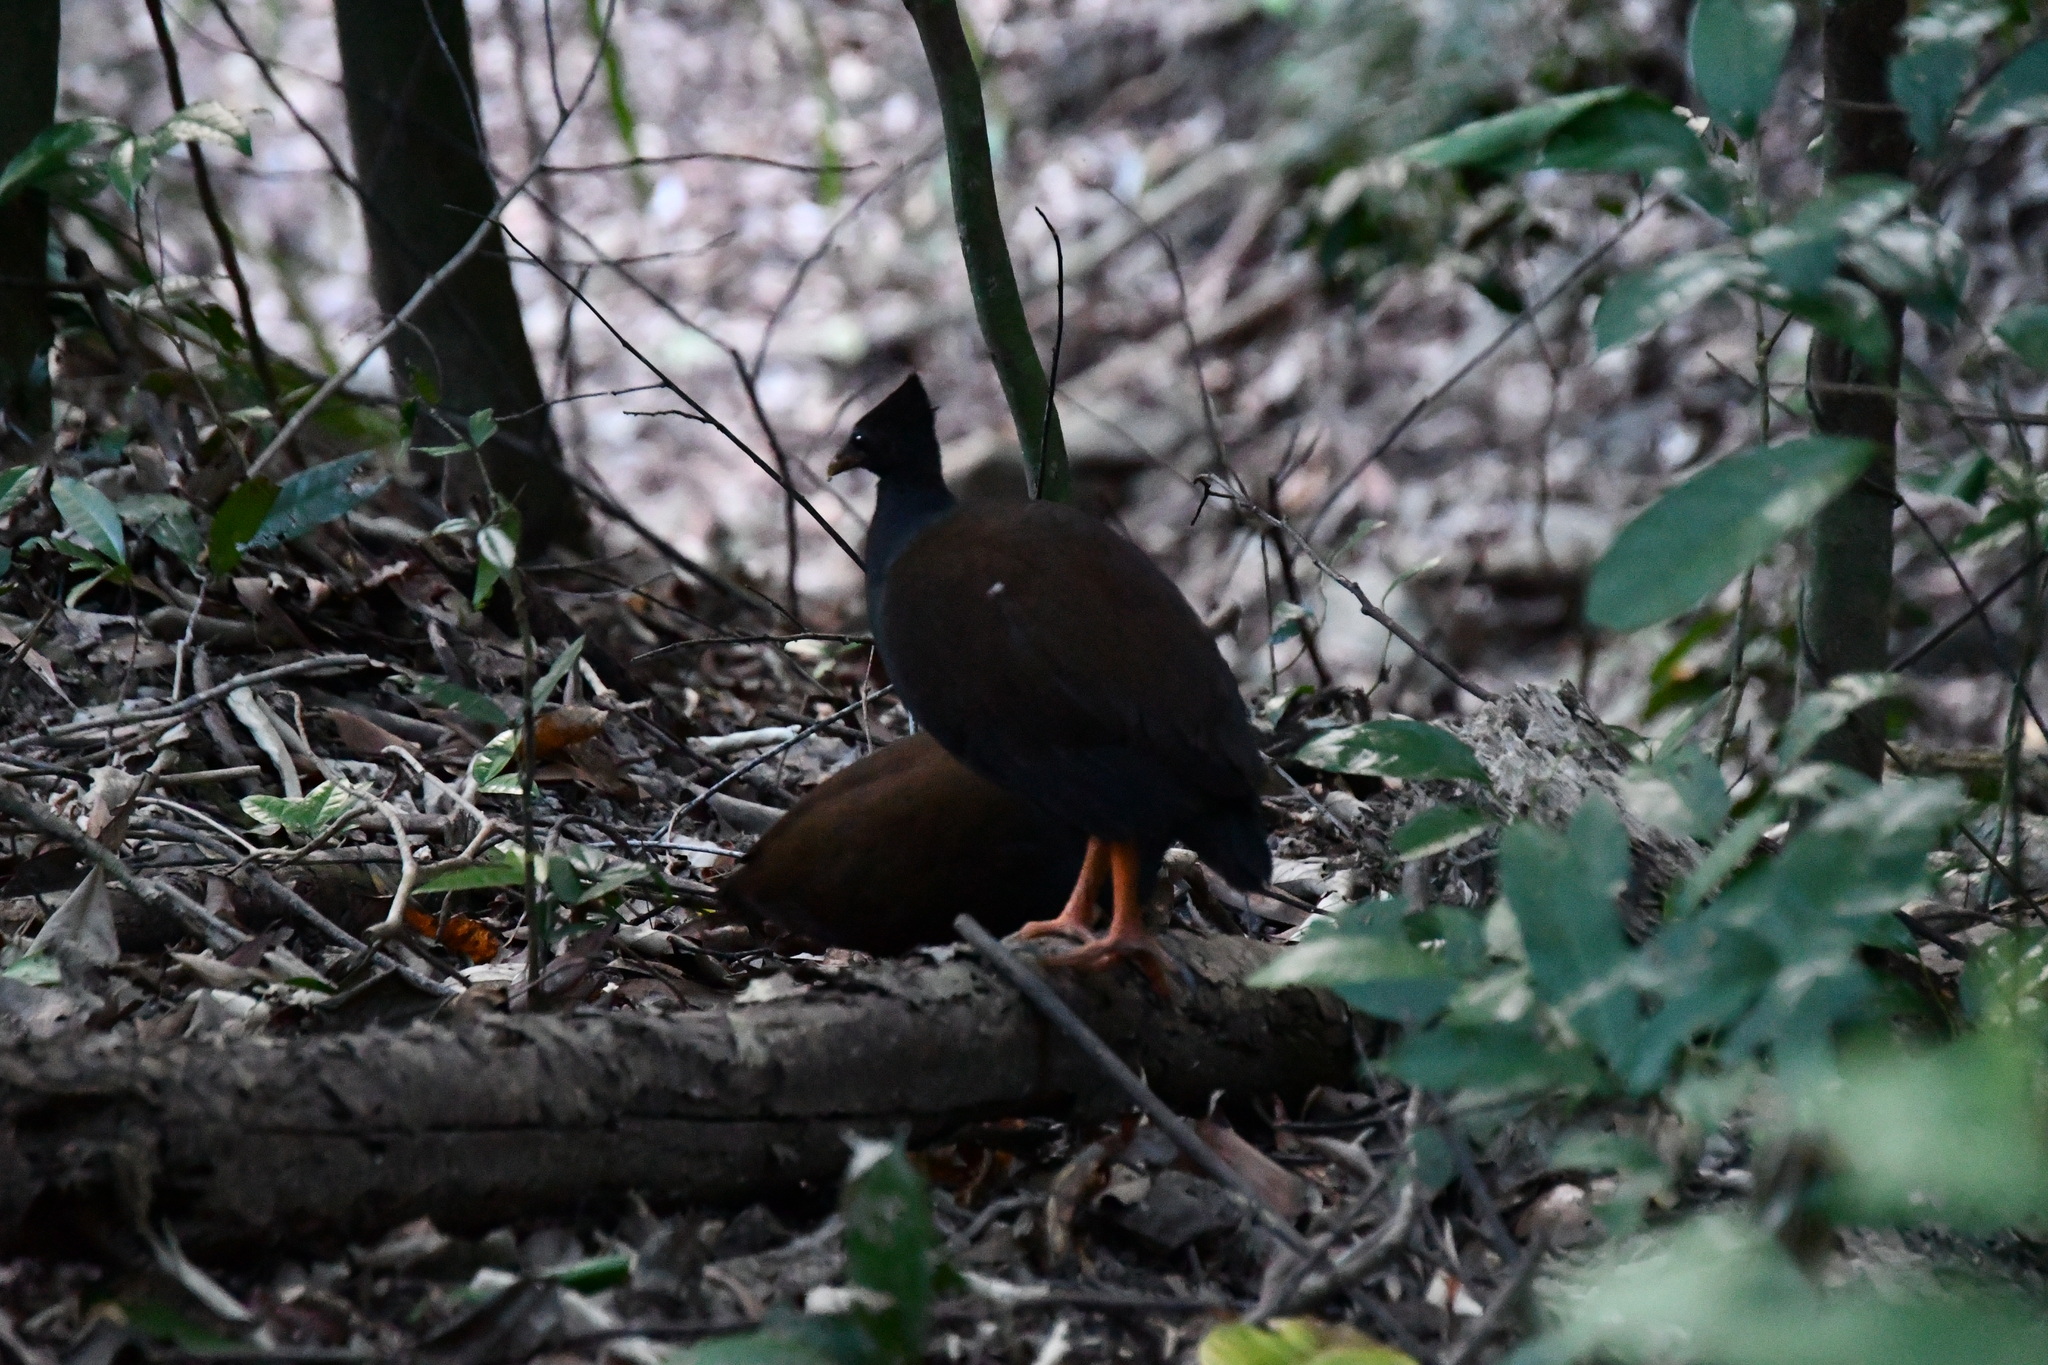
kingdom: Animalia
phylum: Chordata
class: Aves
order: Galliformes
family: Megapodiidae
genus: Megapodius
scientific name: Megapodius reinwardt
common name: Orange-footed scrubfowl
